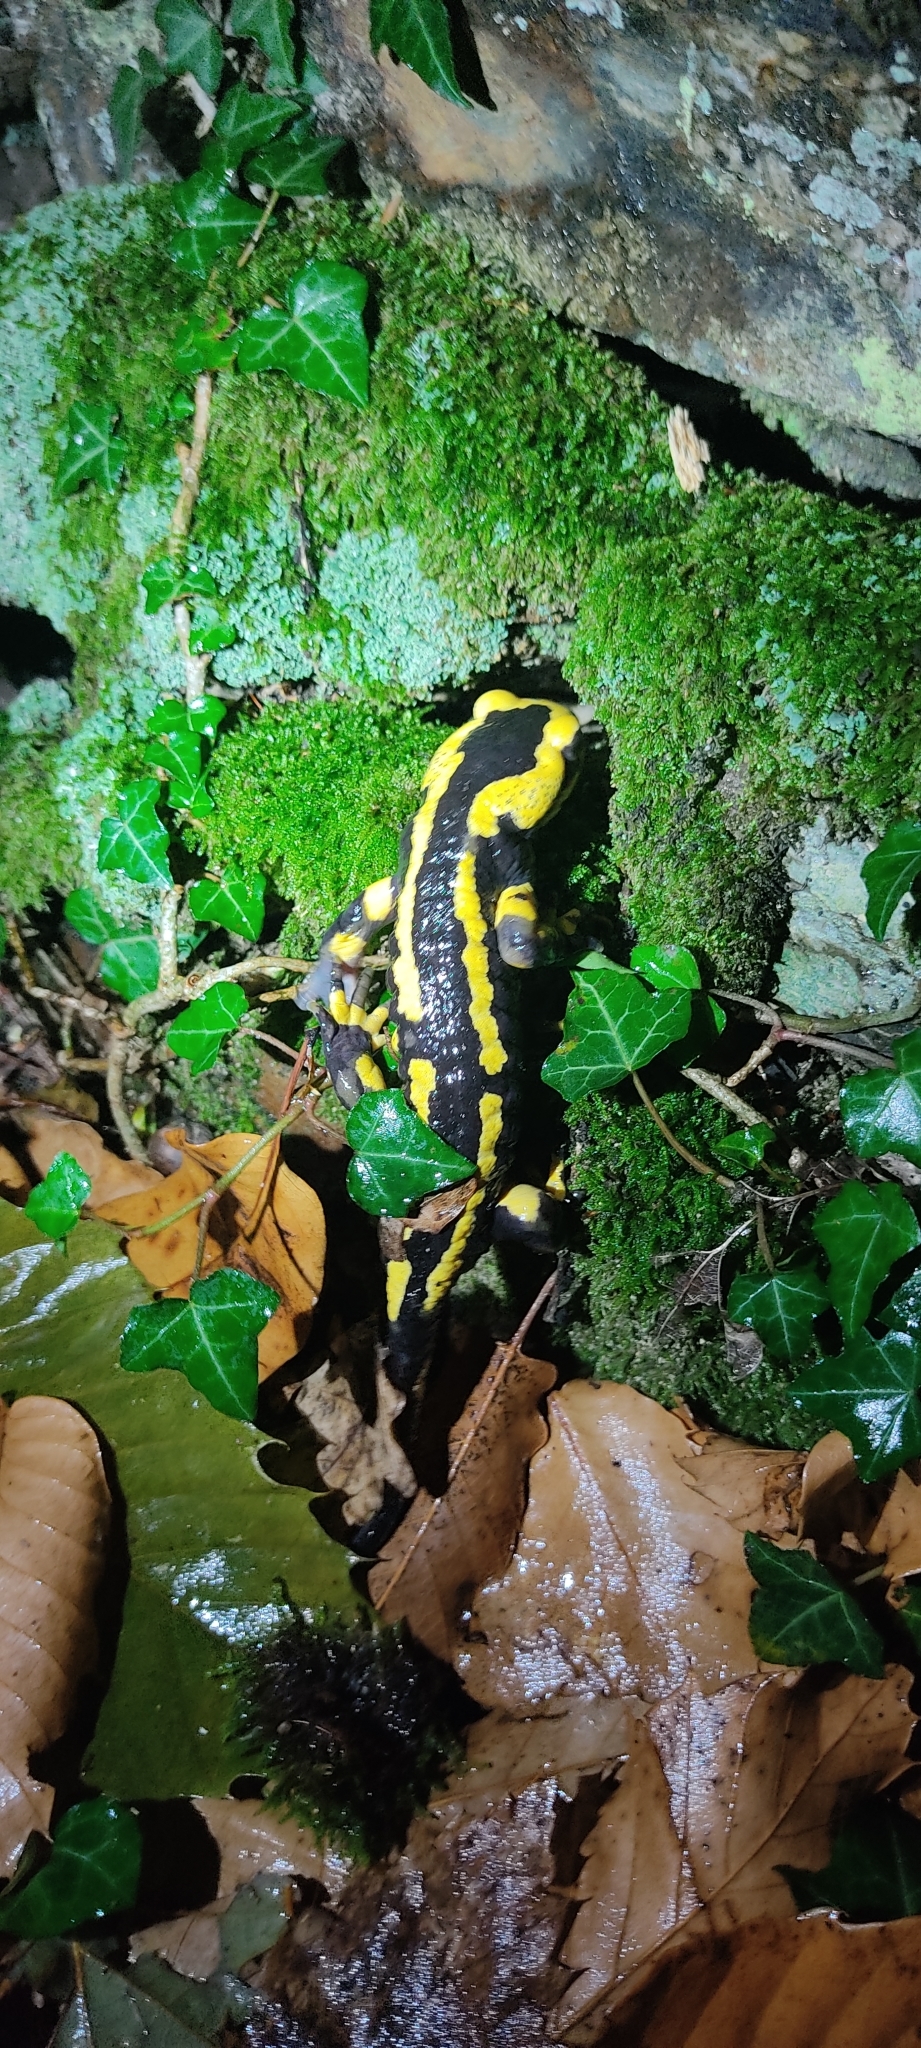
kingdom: Animalia
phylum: Chordata
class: Amphibia
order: Caudata
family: Salamandridae
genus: Salamandra
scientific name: Salamandra salamandra
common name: Fire salamander
